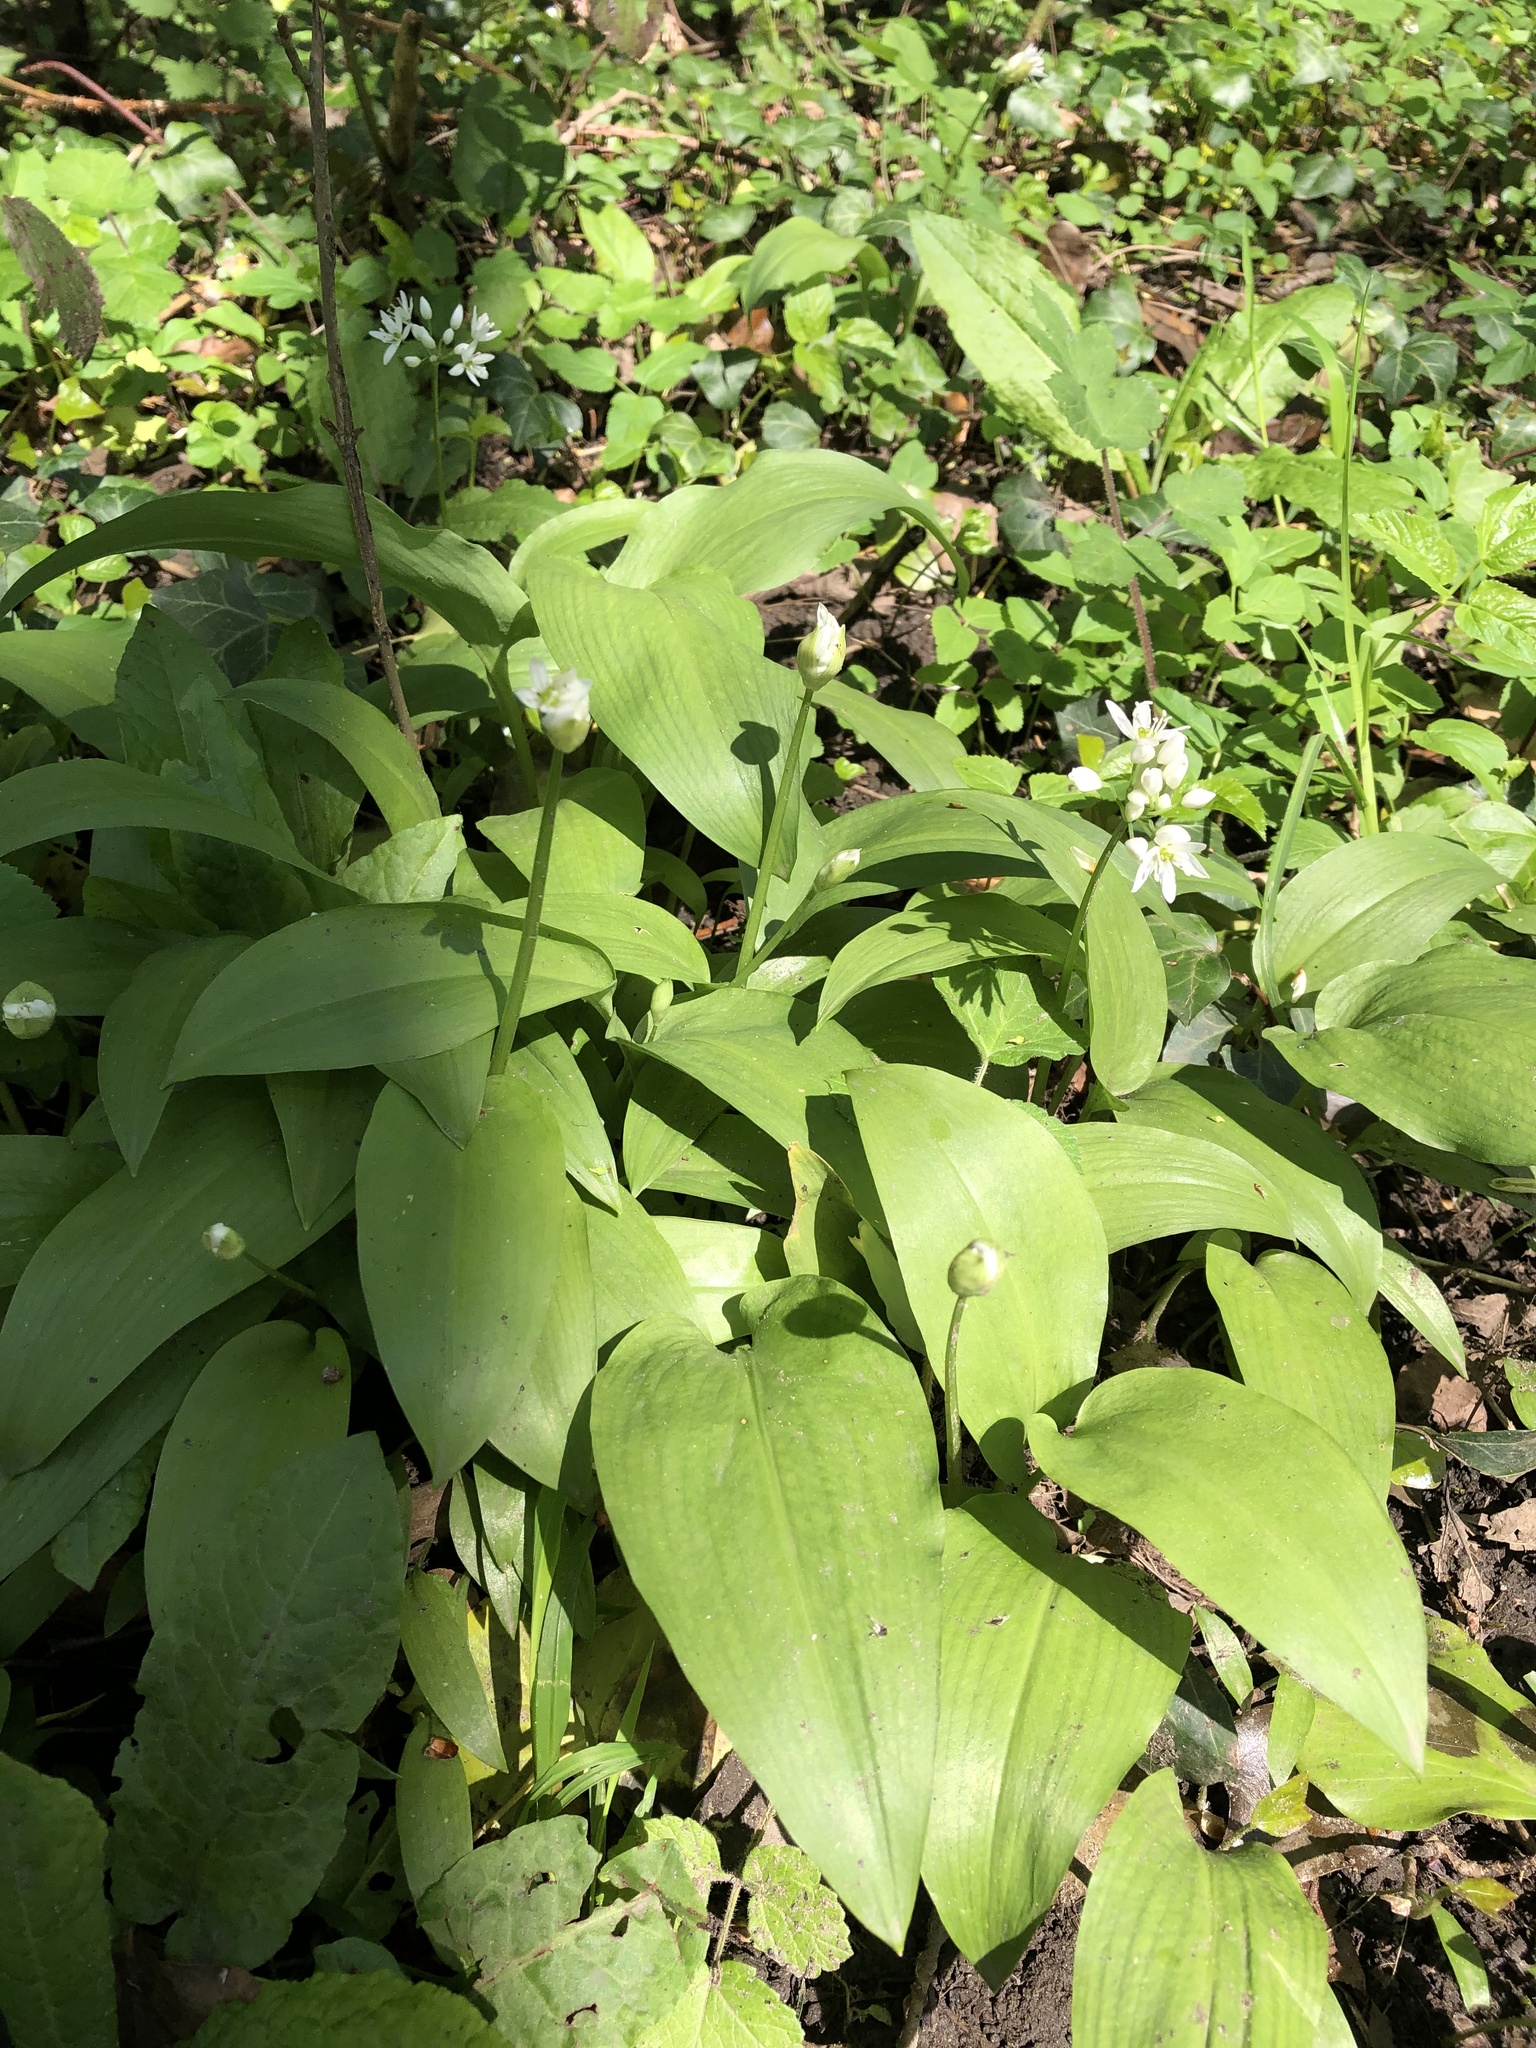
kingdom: Plantae
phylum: Tracheophyta
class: Liliopsida
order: Asparagales
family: Amaryllidaceae
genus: Allium
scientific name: Allium ursinum
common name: Ramsons
